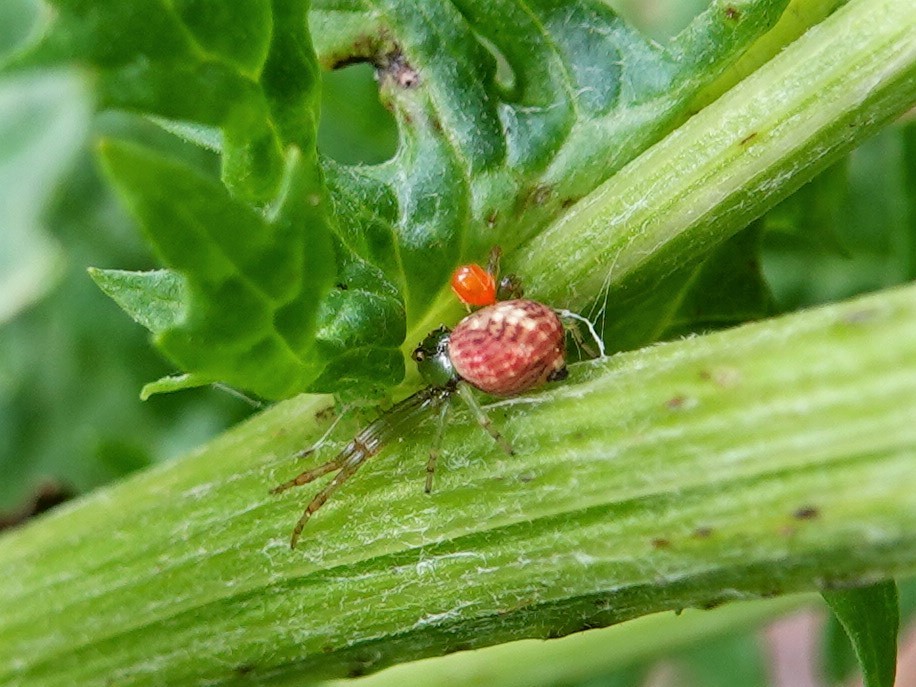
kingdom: Animalia
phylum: Arthropoda
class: Arachnida
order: Araneae
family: Thomisidae
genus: Diaea
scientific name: Diaea ambara
